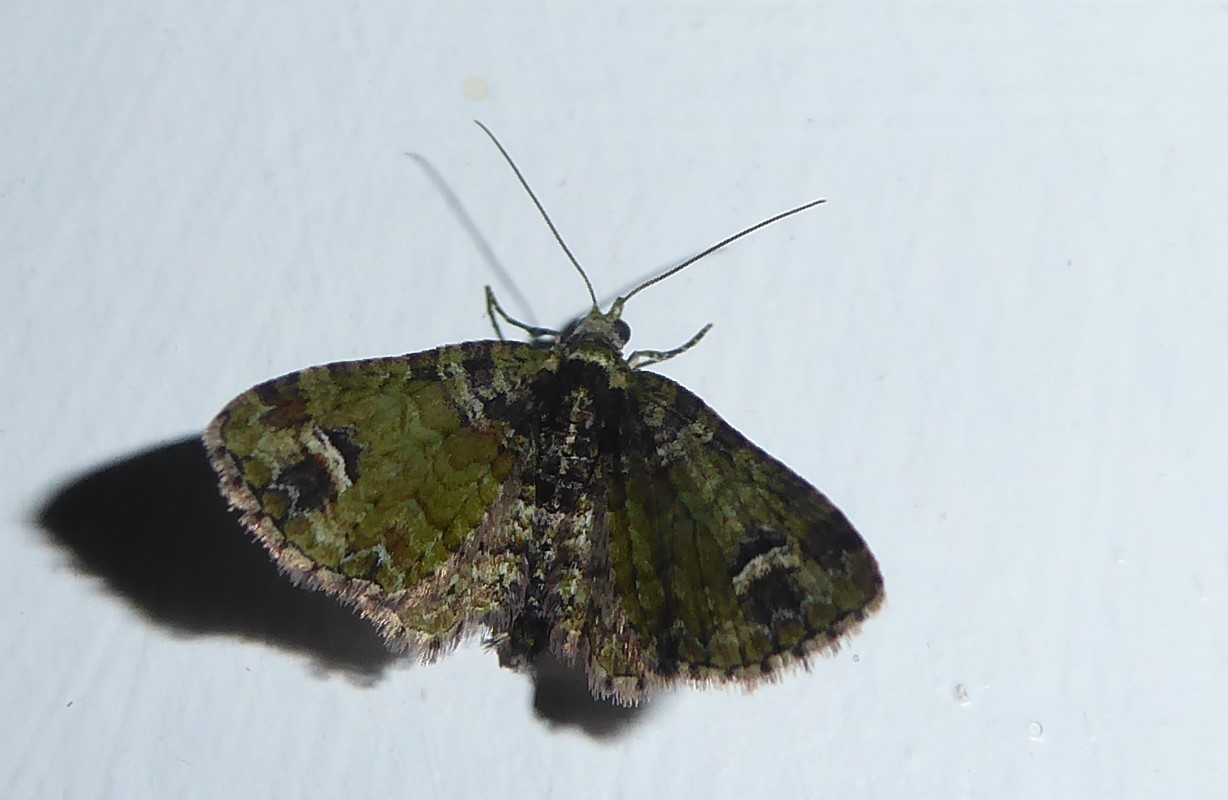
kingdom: Animalia
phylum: Arthropoda
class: Insecta
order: Lepidoptera
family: Geometridae
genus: Idaea
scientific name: Idaea mutanda
